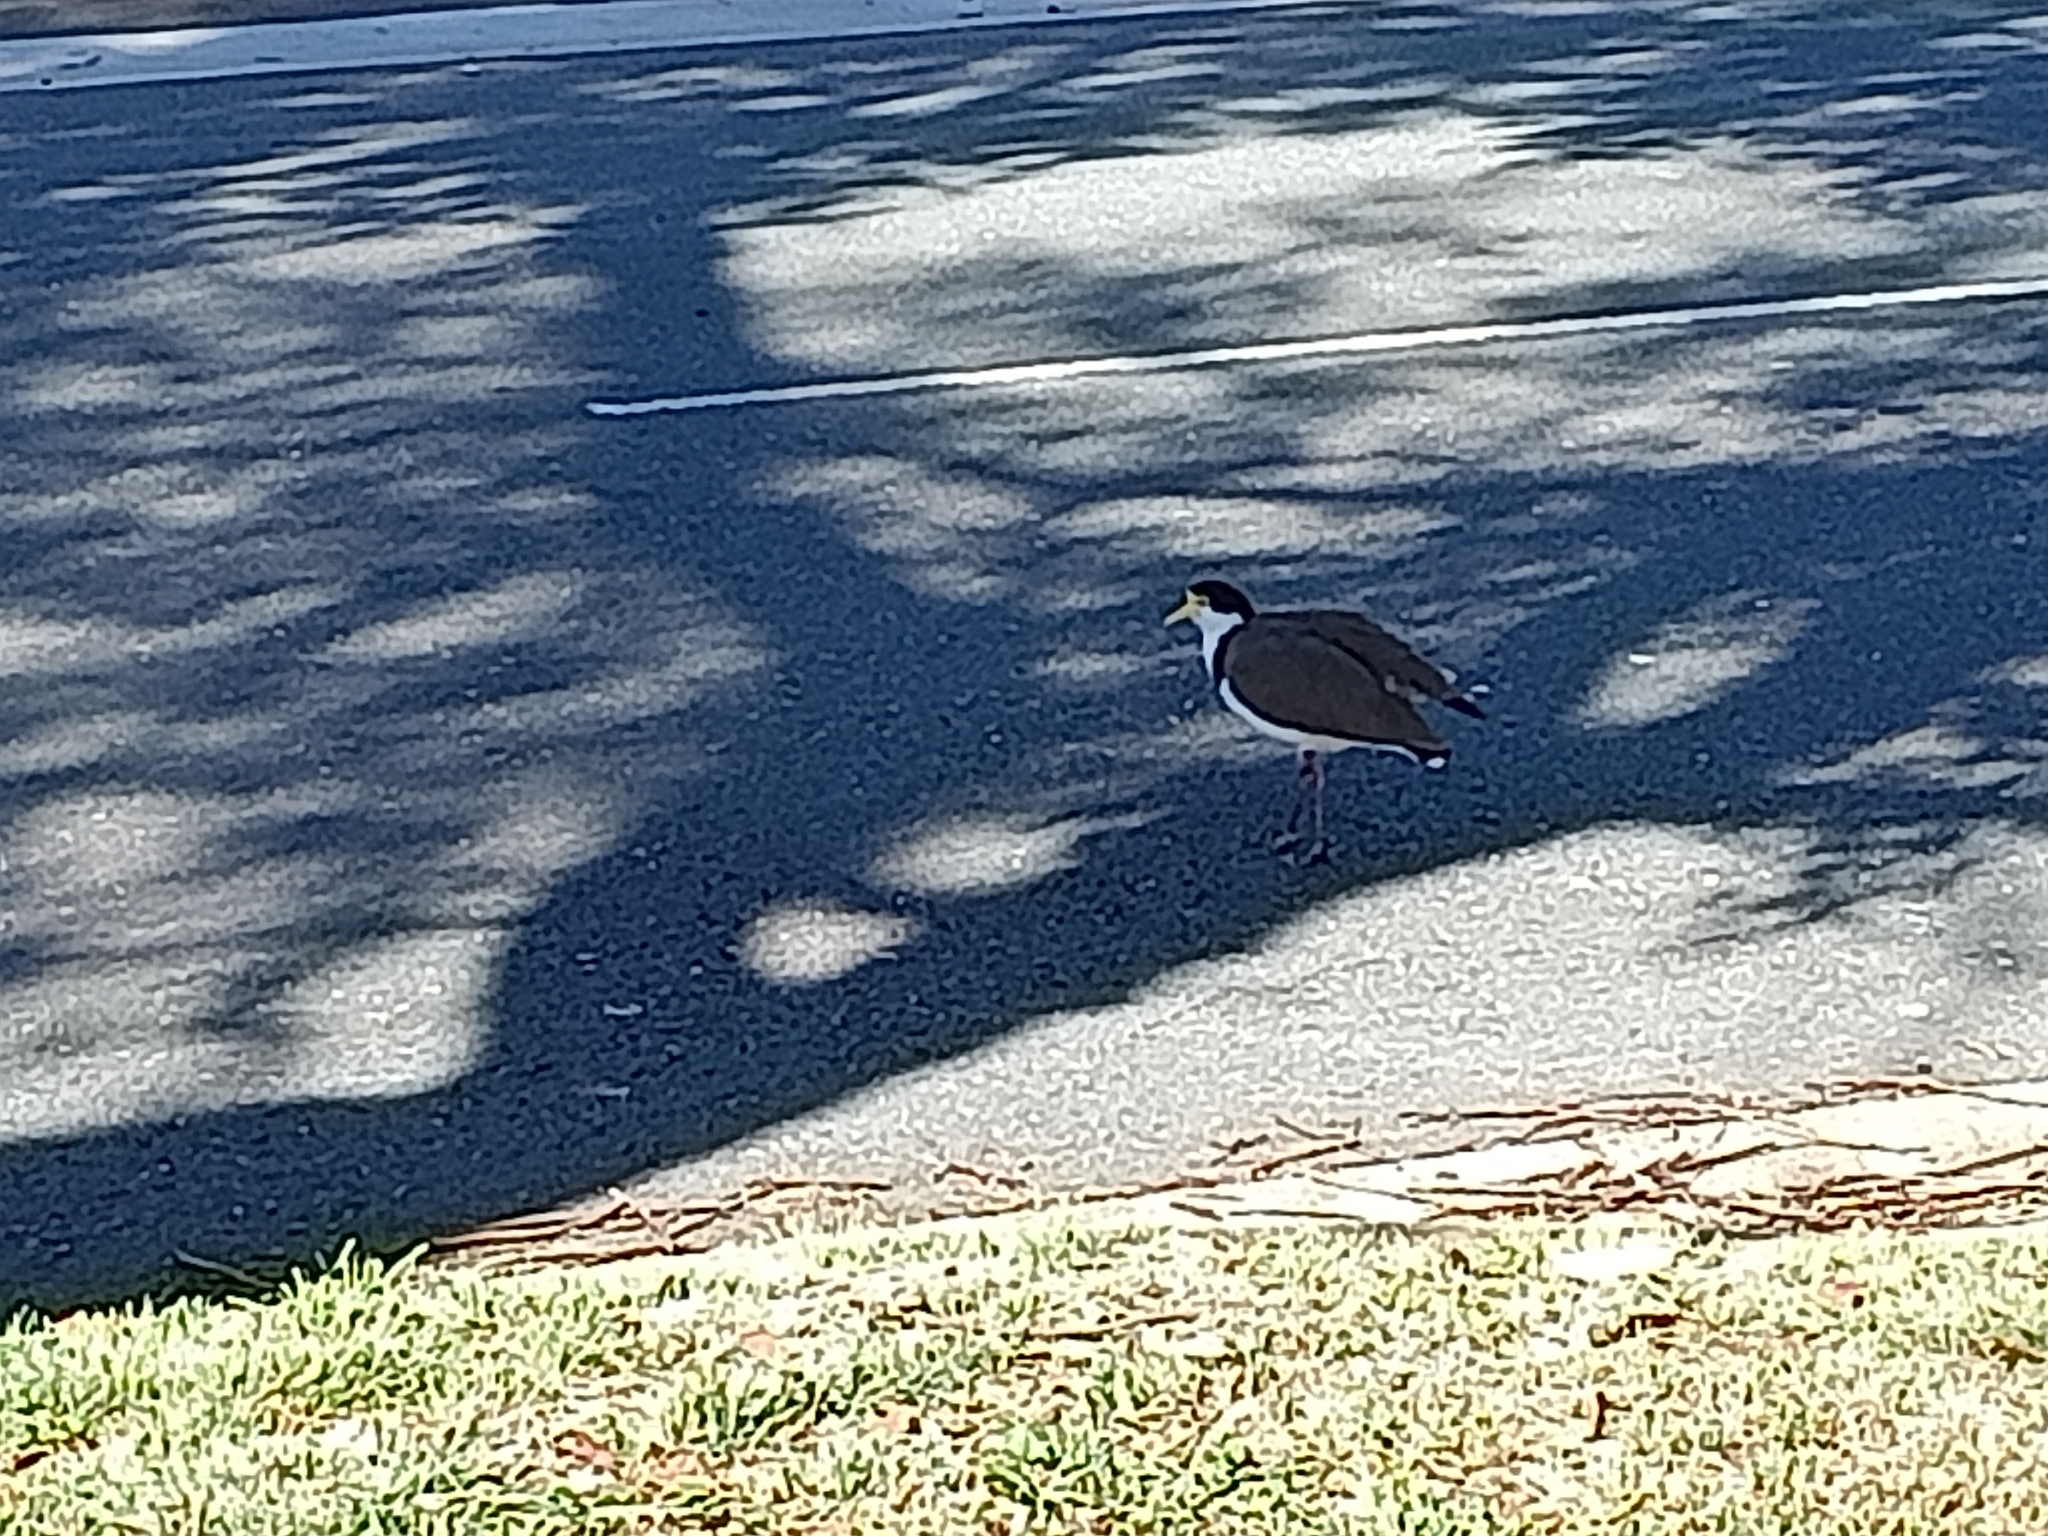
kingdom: Animalia
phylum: Chordata
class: Aves
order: Charadriiformes
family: Charadriidae
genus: Vanellus
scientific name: Vanellus miles
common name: Masked lapwing
